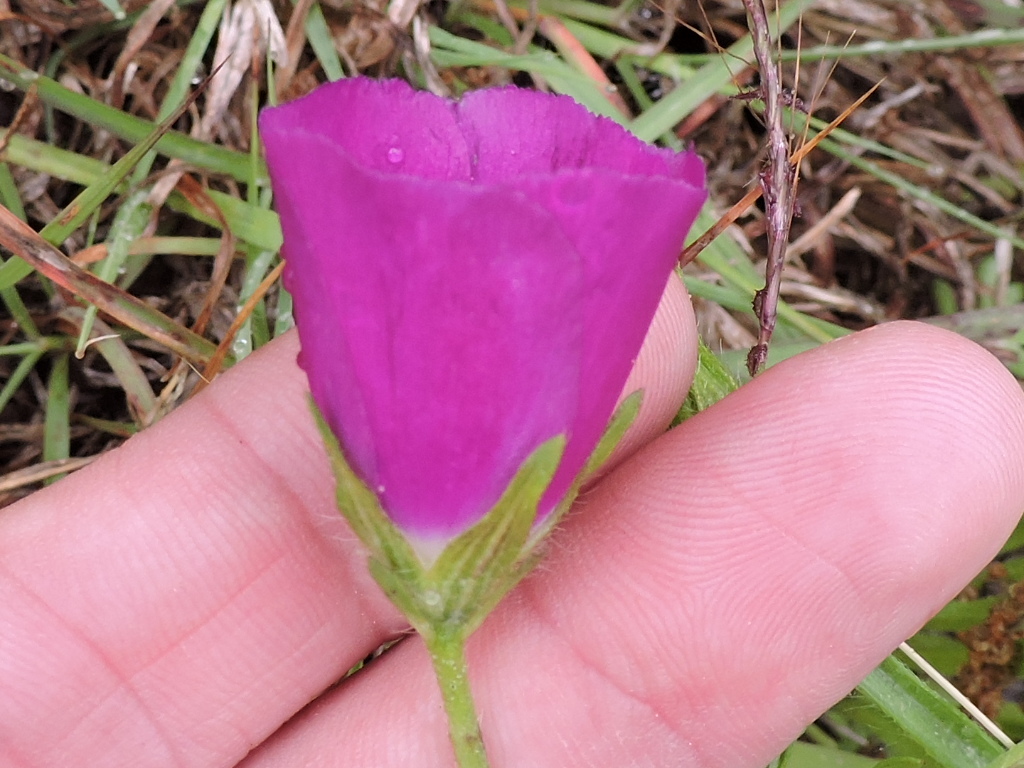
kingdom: Plantae
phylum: Tracheophyta
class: Magnoliopsida
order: Malvales
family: Malvaceae
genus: Callirhoe
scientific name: Callirhoe involucrata
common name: Purple poppy-mallow
